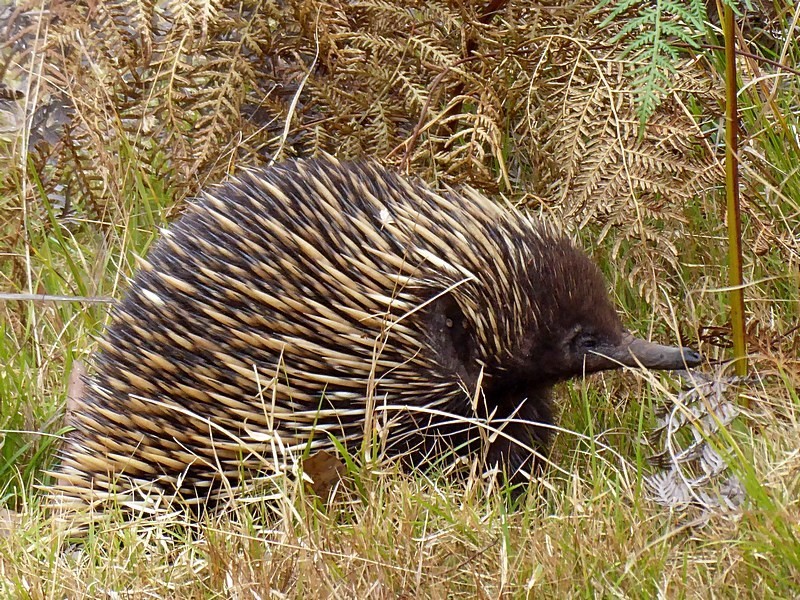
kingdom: Animalia
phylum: Chordata
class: Mammalia
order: Monotremata
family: Tachyglossidae
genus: Tachyglossus
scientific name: Tachyglossus aculeatus
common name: Short-beaked echidna
